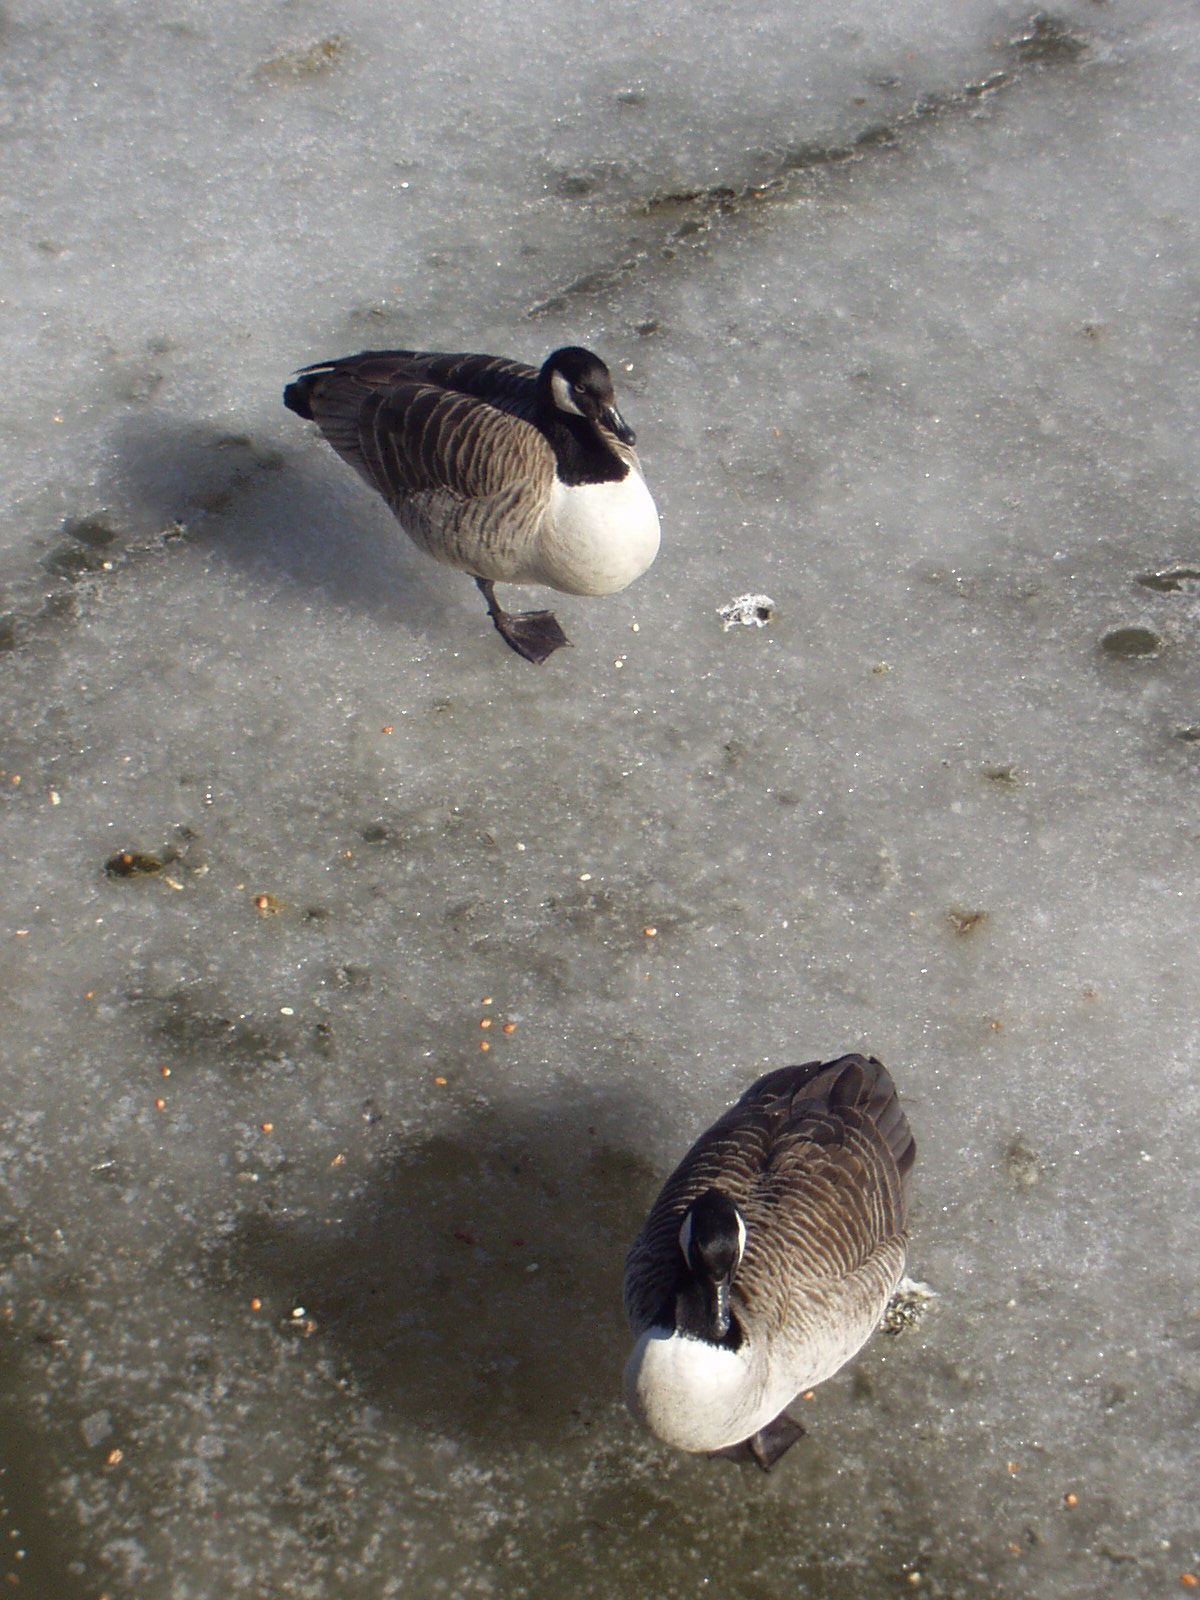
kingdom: Animalia
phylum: Chordata
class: Aves
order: Anseriformes
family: Anatidae
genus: Branta
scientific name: Branta canadensis
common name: Canada goose
